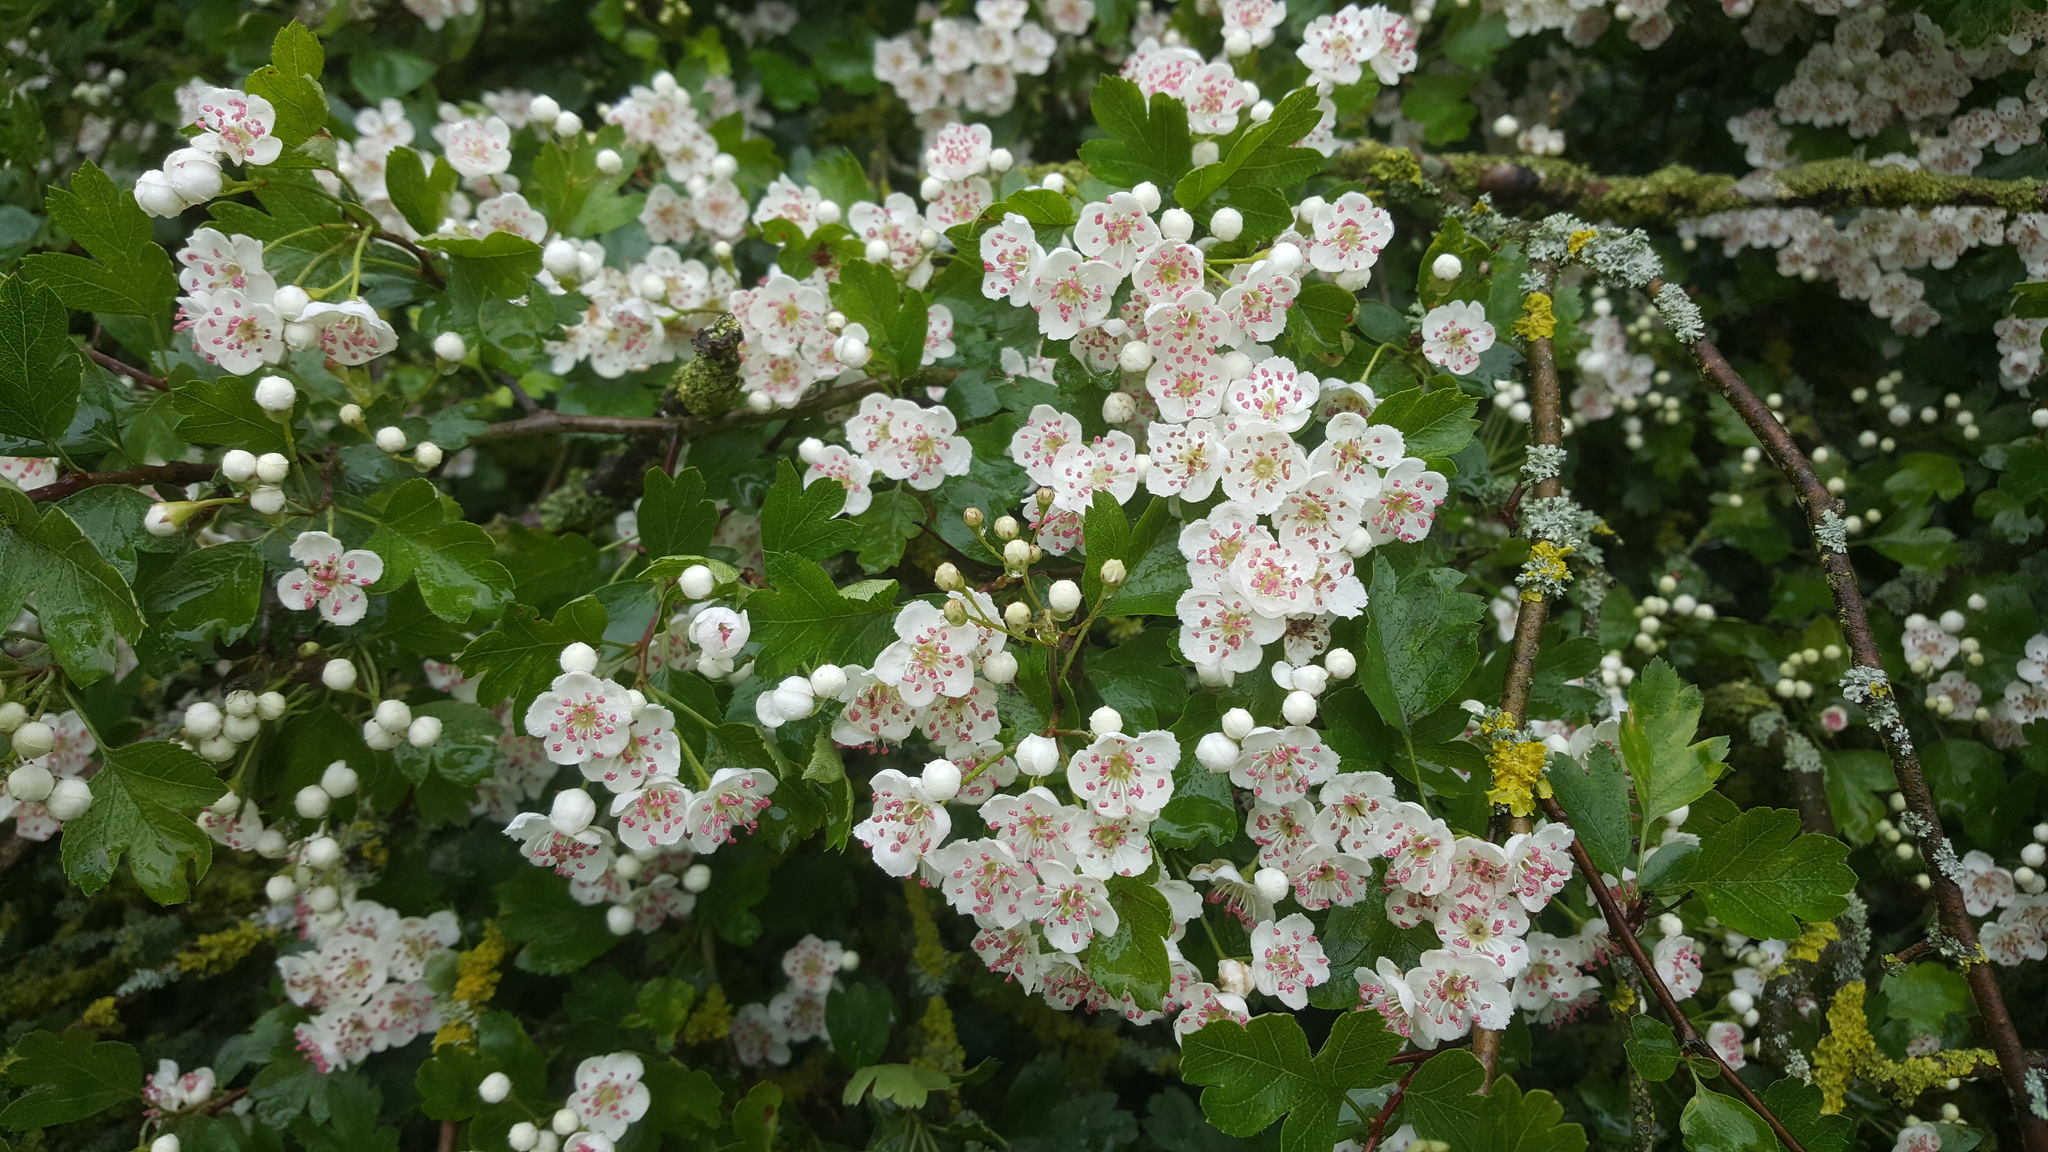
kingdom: Plantae
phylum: Tracheophyta
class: Magnoliopsida
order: Rosales
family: Rosaceae
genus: Crataegus
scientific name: Crataegus monogyna
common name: Hawthorn
